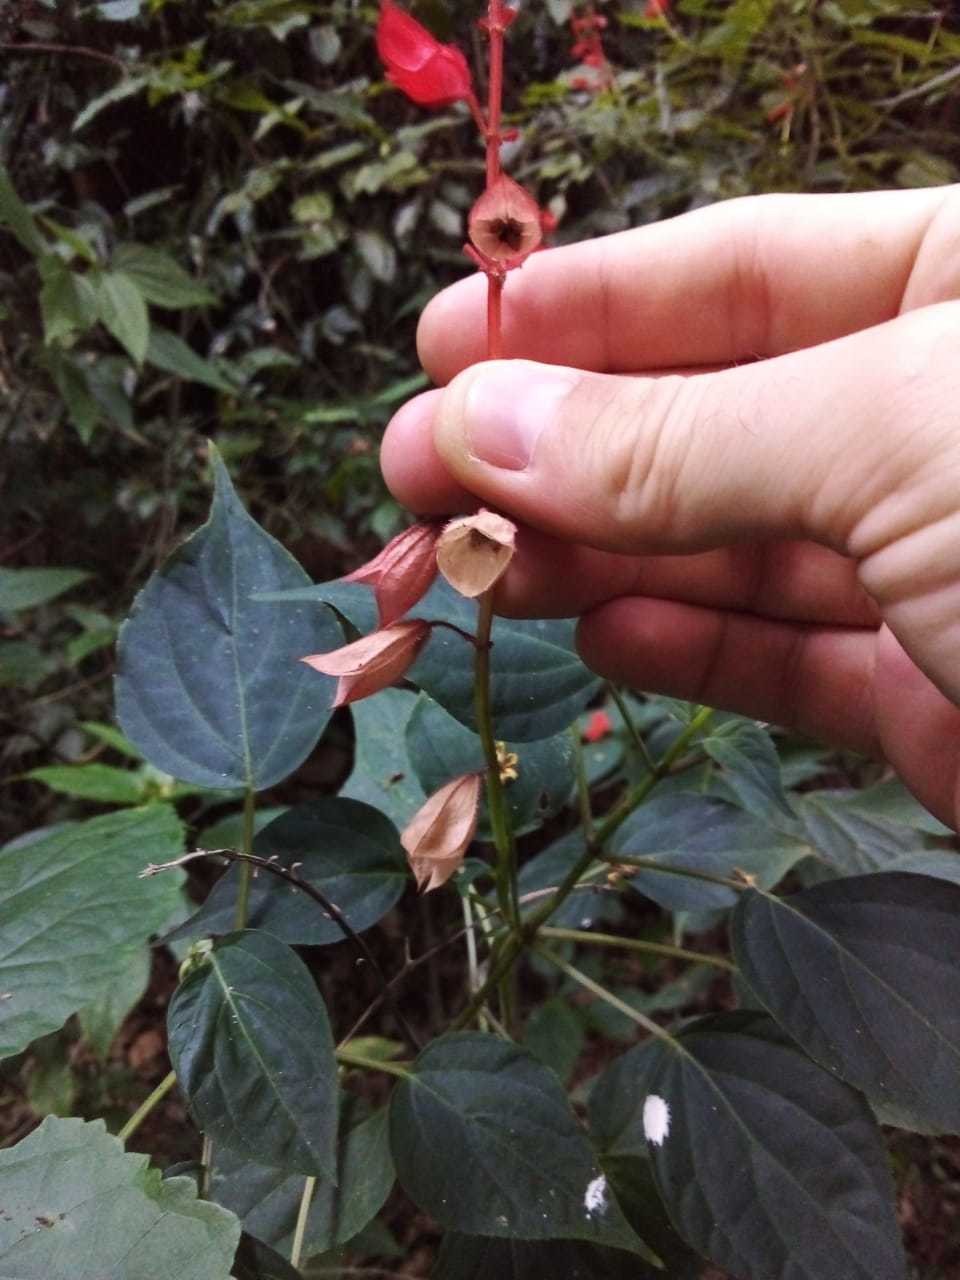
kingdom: Plantae
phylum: Tracheophyta
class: Magnoliopsida
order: Lamiales
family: Lamiaceae
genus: Salvia
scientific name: Salvia splendens
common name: Scarlet sage
